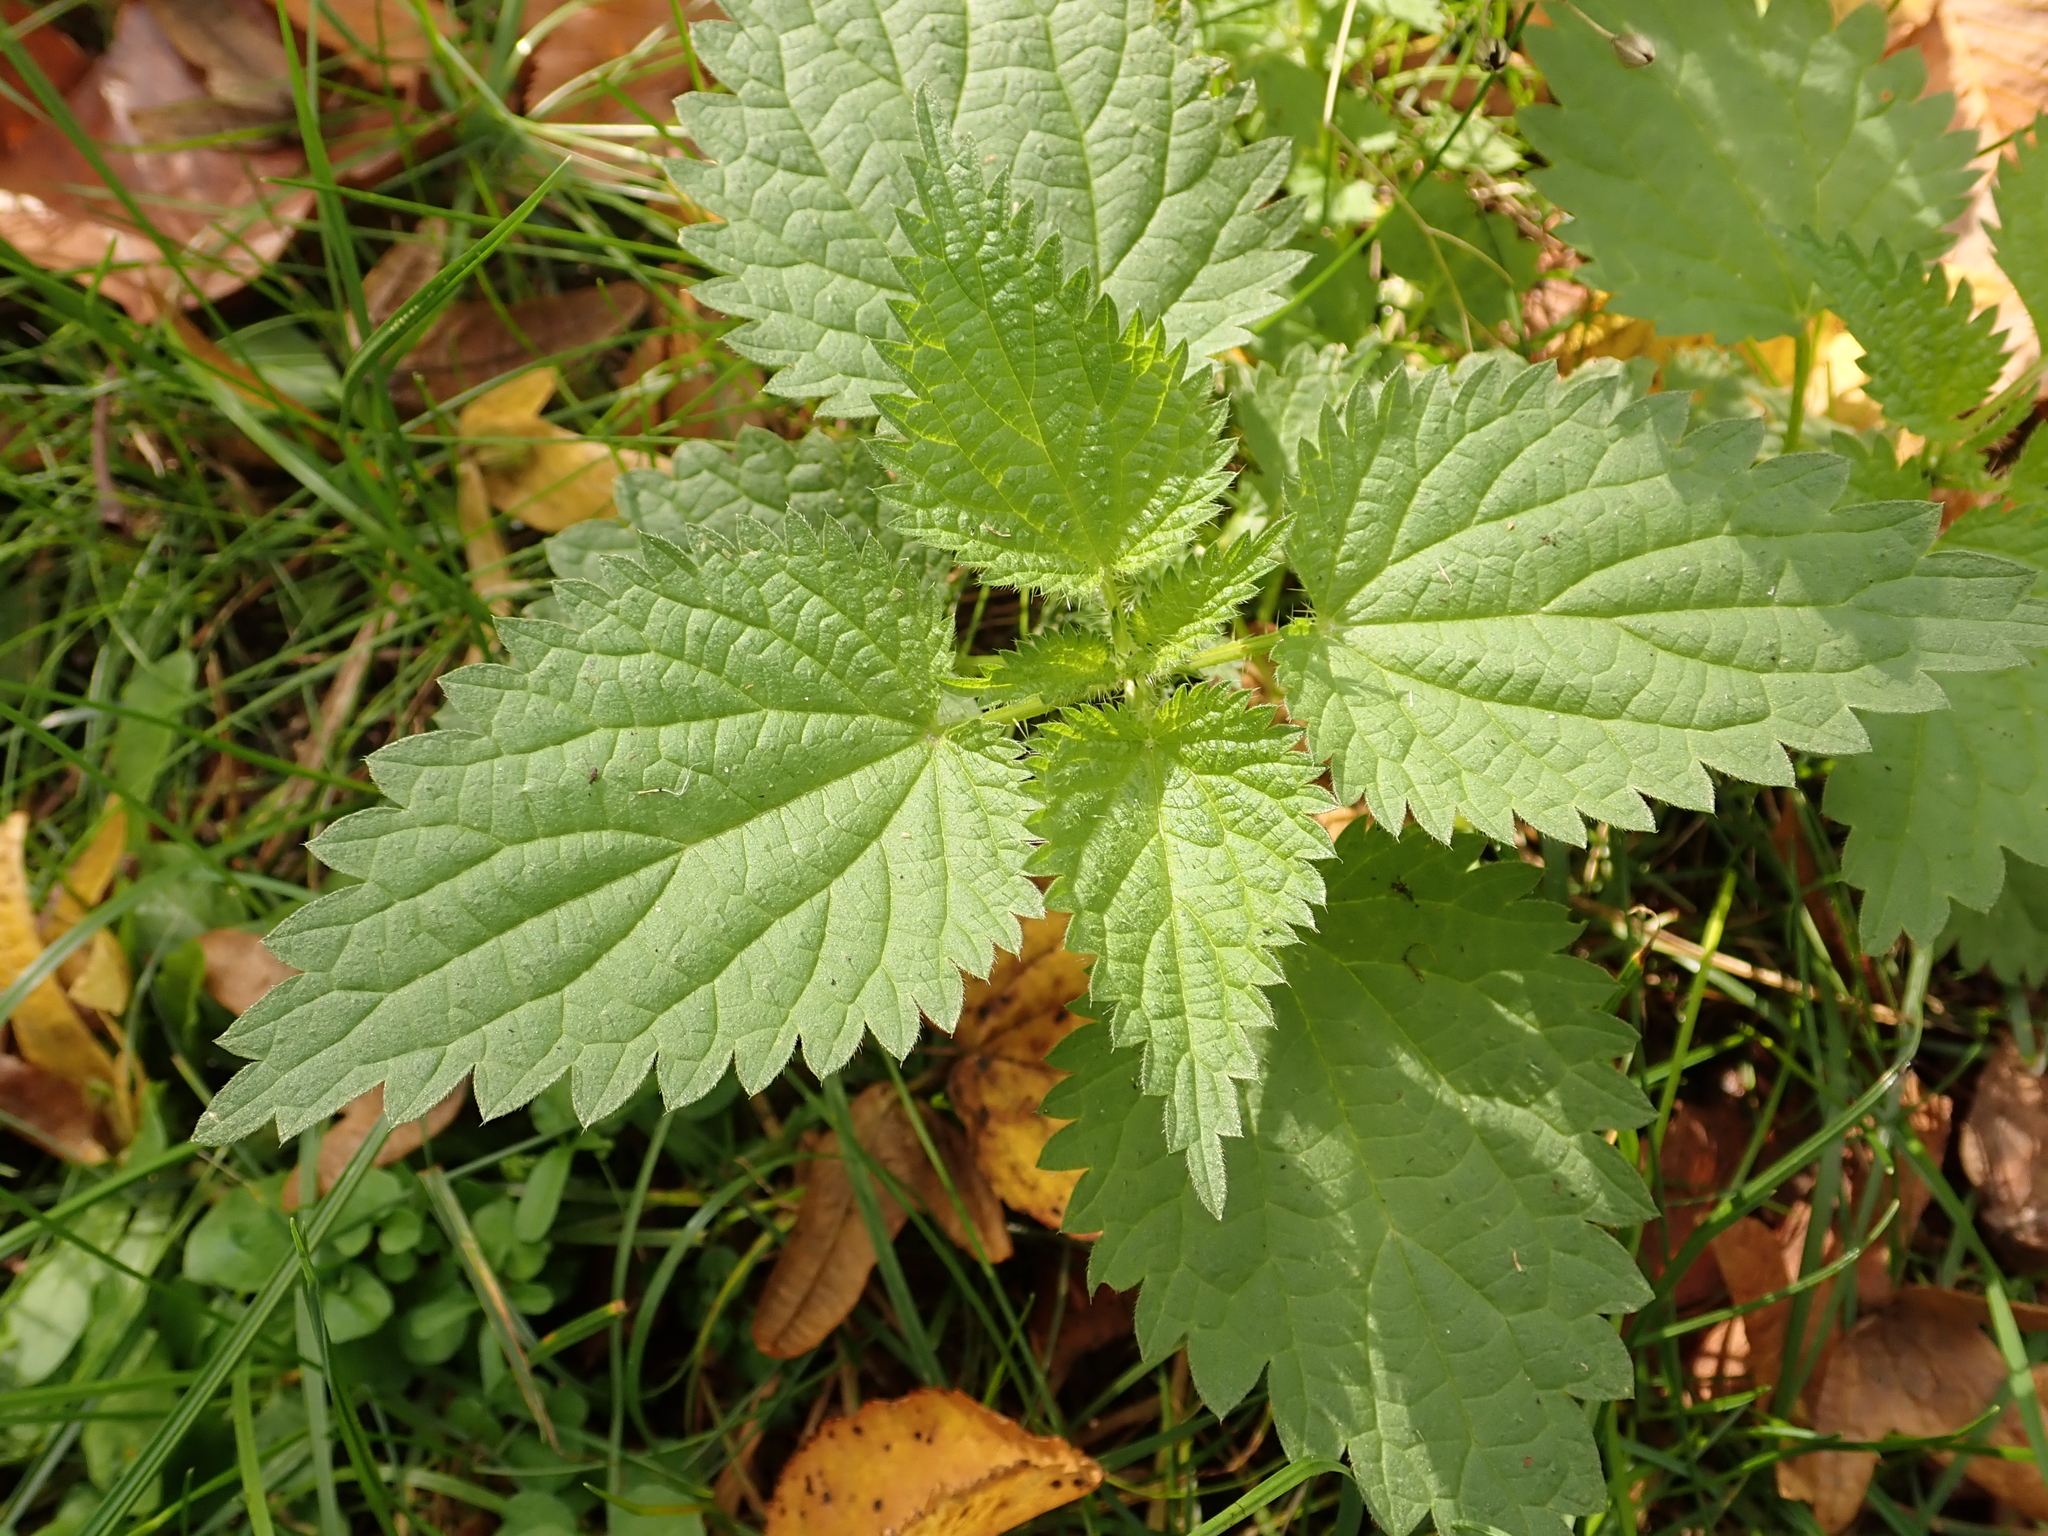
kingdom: Plantae
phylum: Tracheophyta
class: Magnoliopsida
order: Rosales
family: Urticaceae
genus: Urtica
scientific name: Urtica dioica
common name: Common nettle
